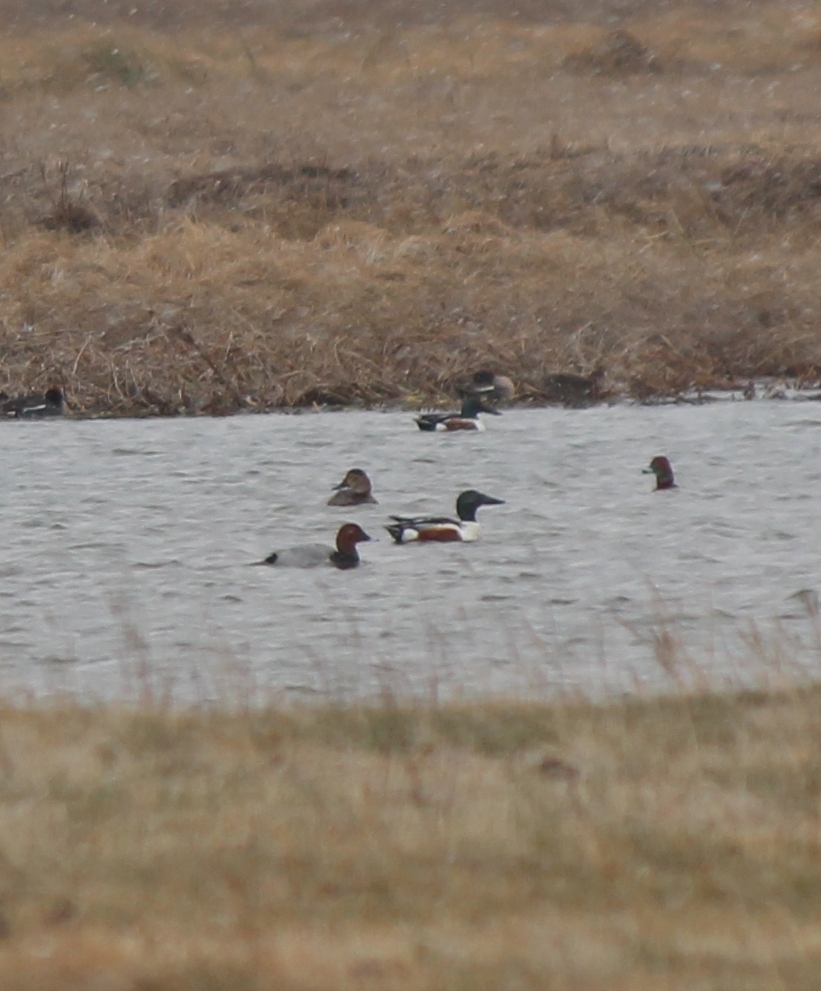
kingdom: Animalia
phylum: Chordata
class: Aves
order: Anseriformes
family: Anatidae
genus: Spatula
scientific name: Spatula clypeata
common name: Northern shoveler
